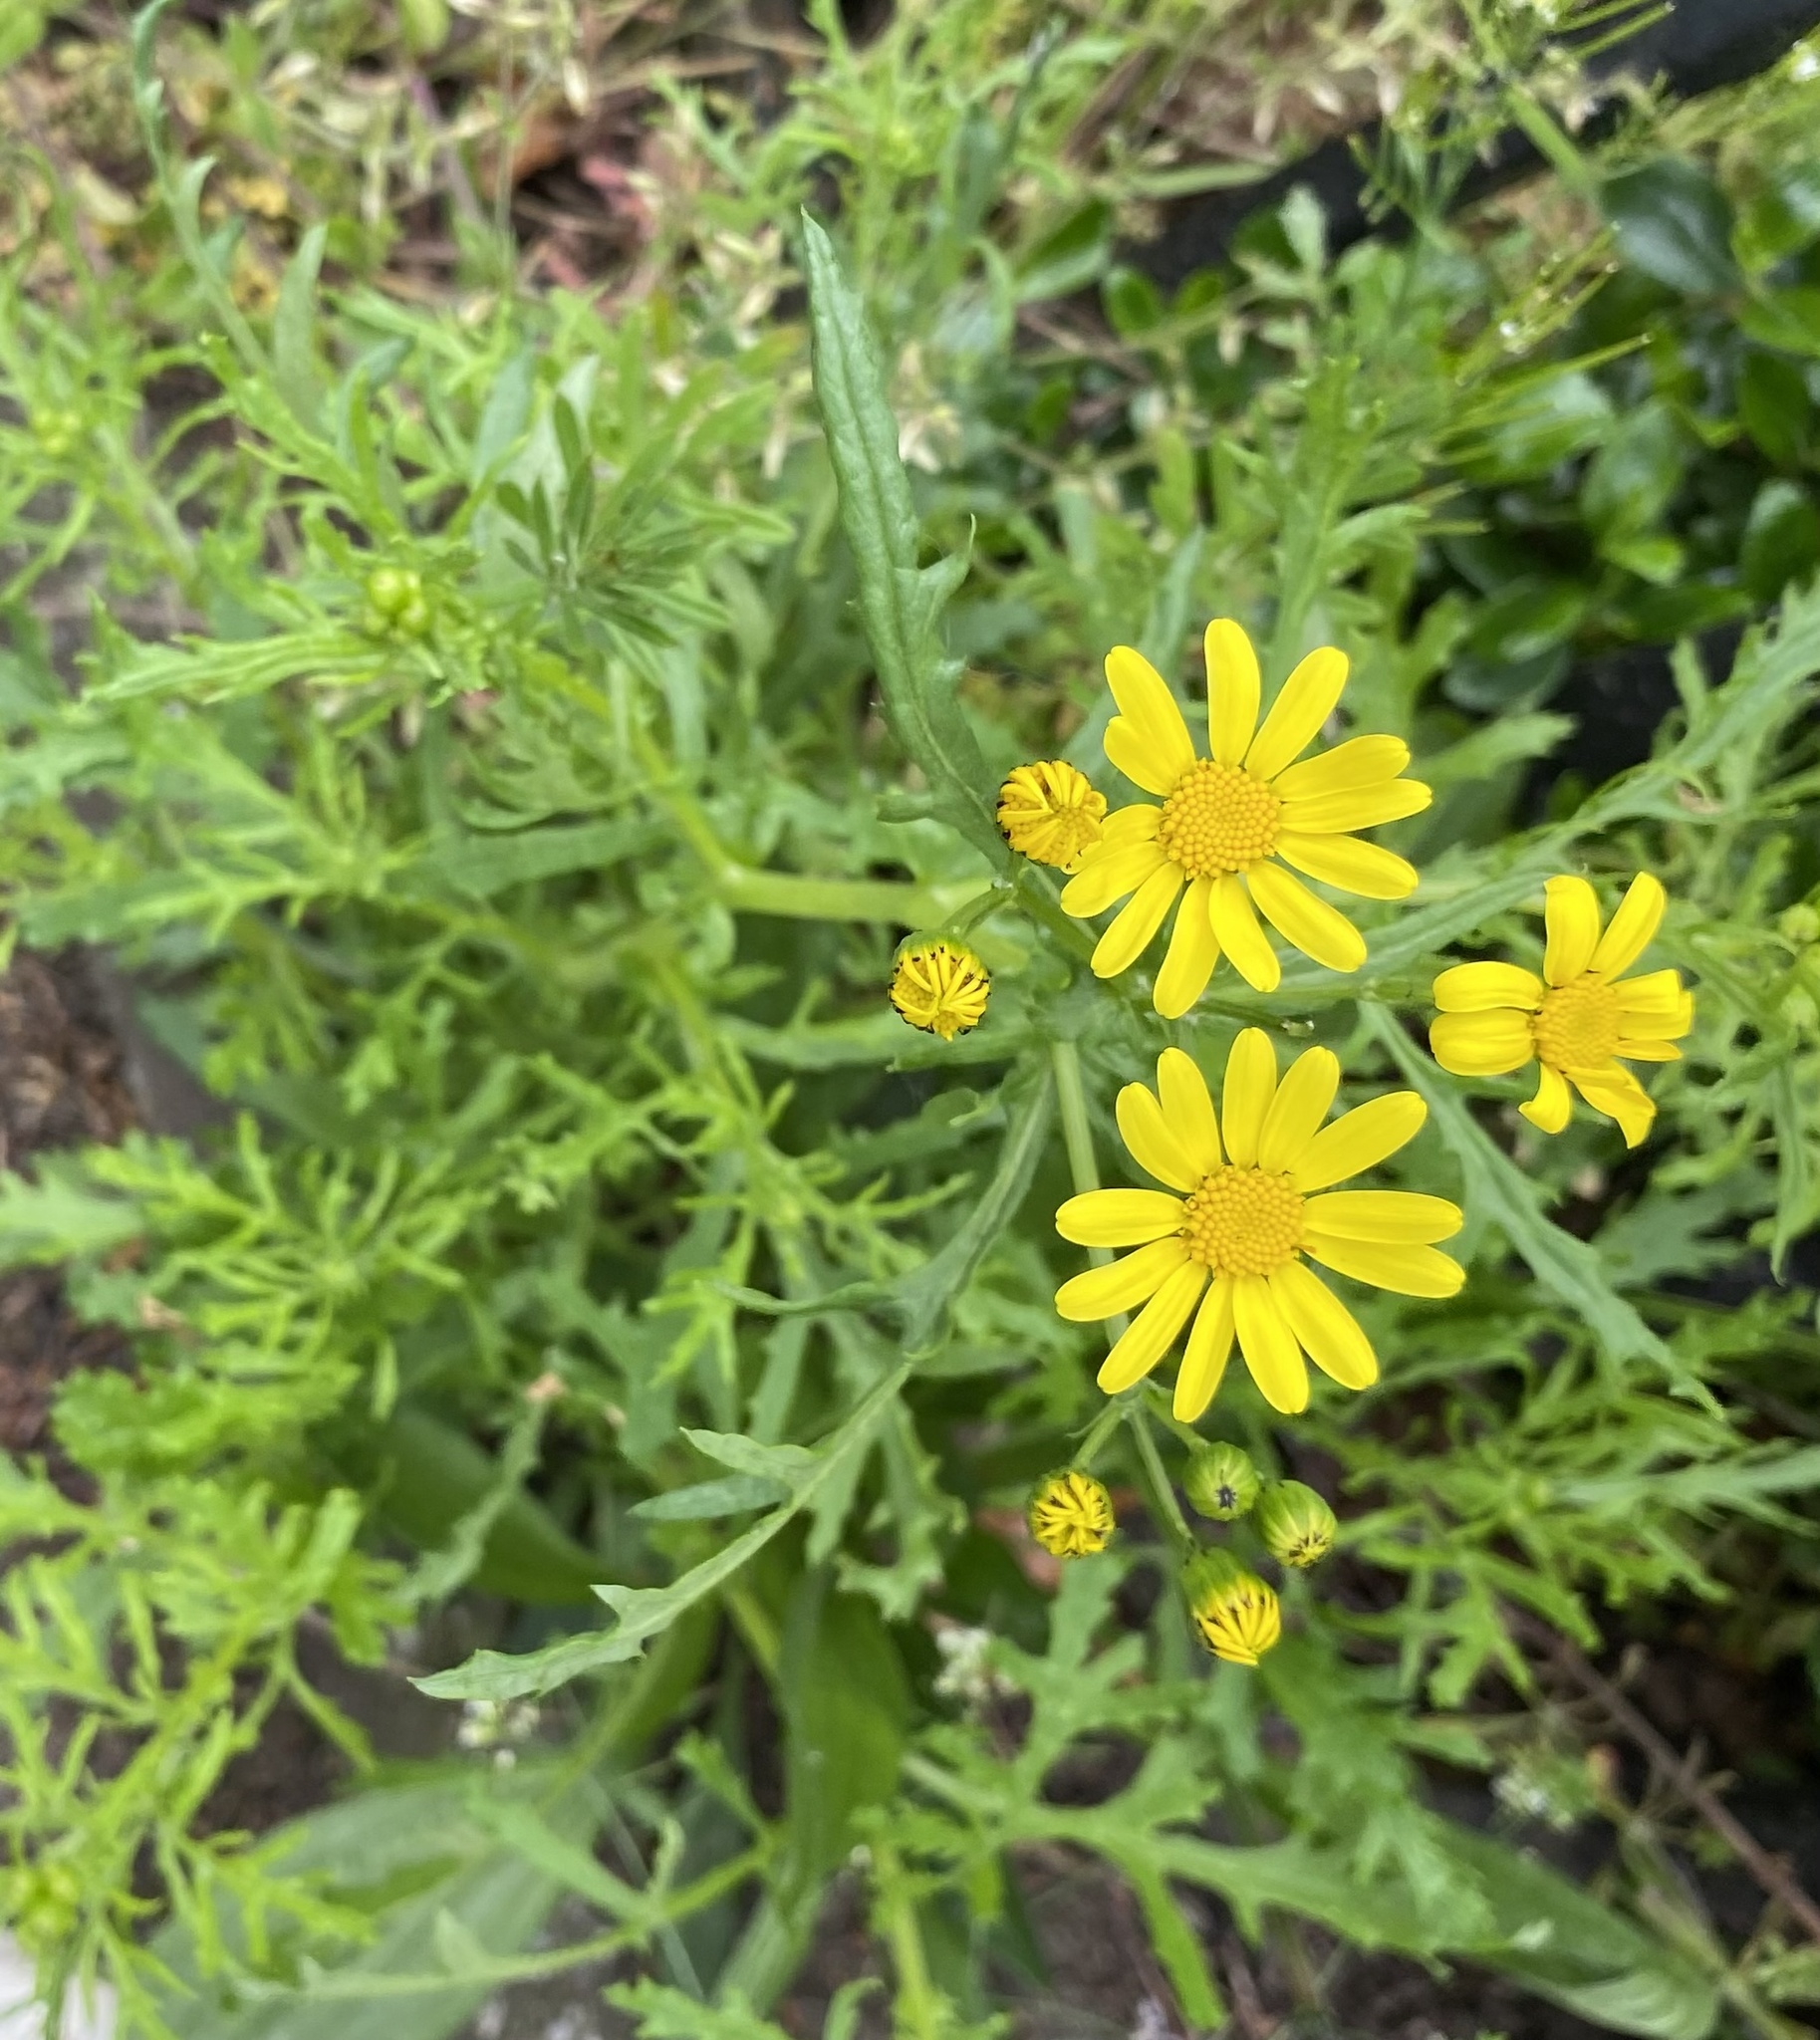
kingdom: Plantae
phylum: Tracheophyta
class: Magnoliopsida
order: Asterales
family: Asteraceae
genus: Senecio
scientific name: Senecio squalidus
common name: Oxford ragwort
